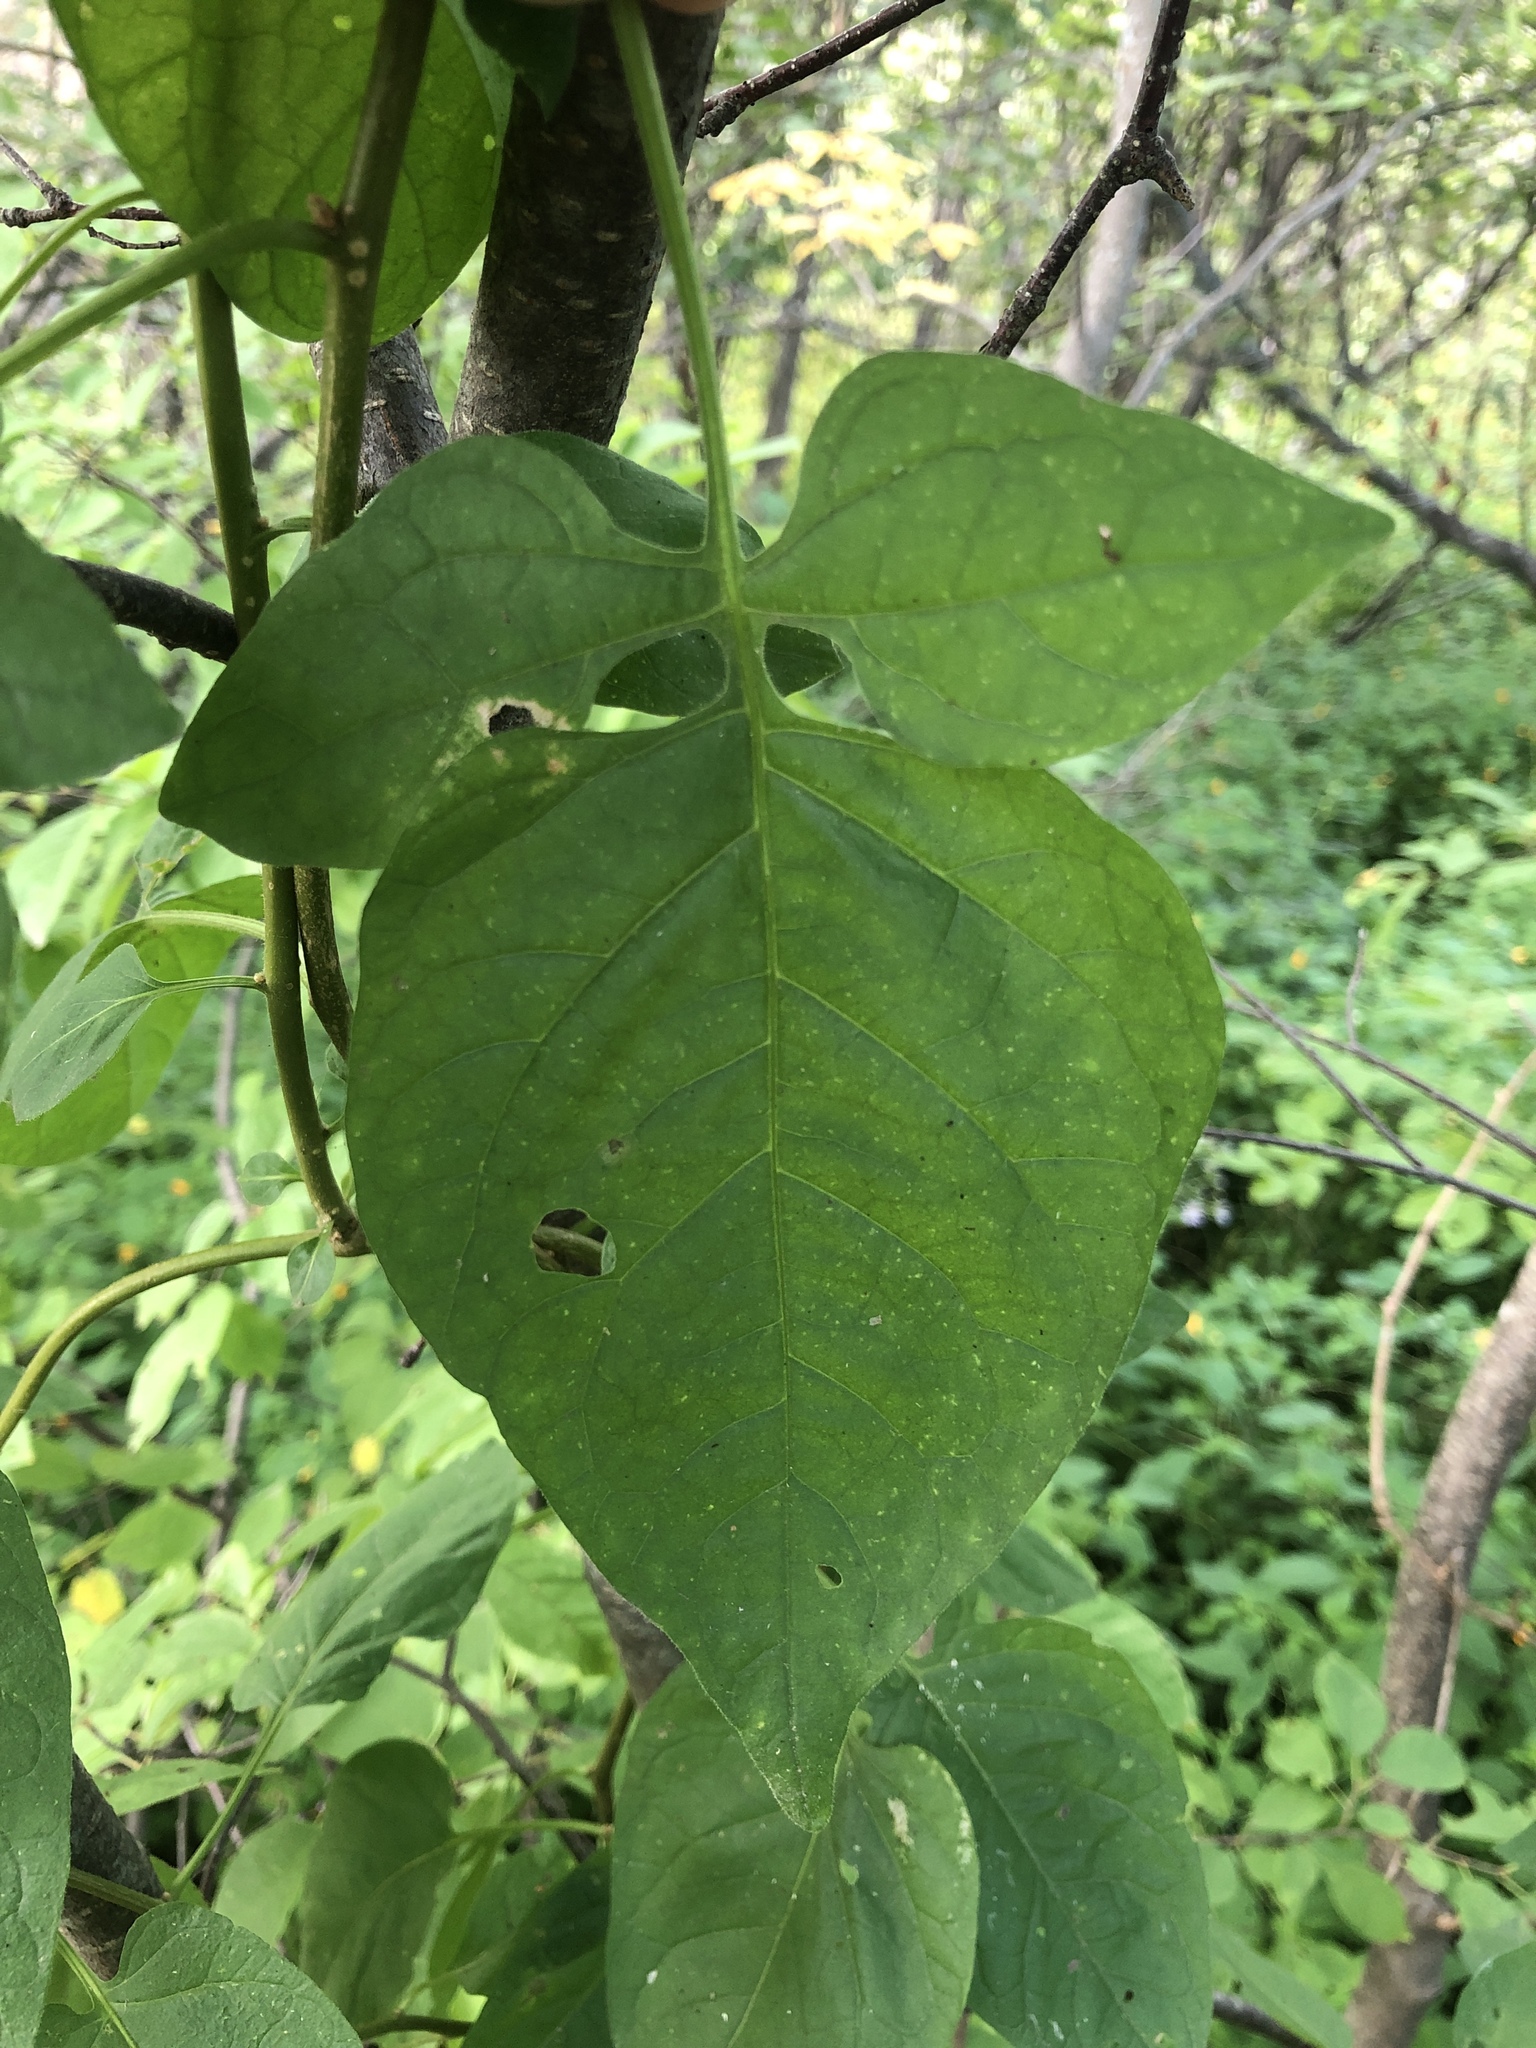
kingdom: Plantae
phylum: Tracheophyta
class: Magnoliopsida
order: Solanales
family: Solanaceae
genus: Solanum
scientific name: Solanum dulcamara
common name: Climbing nightshade
